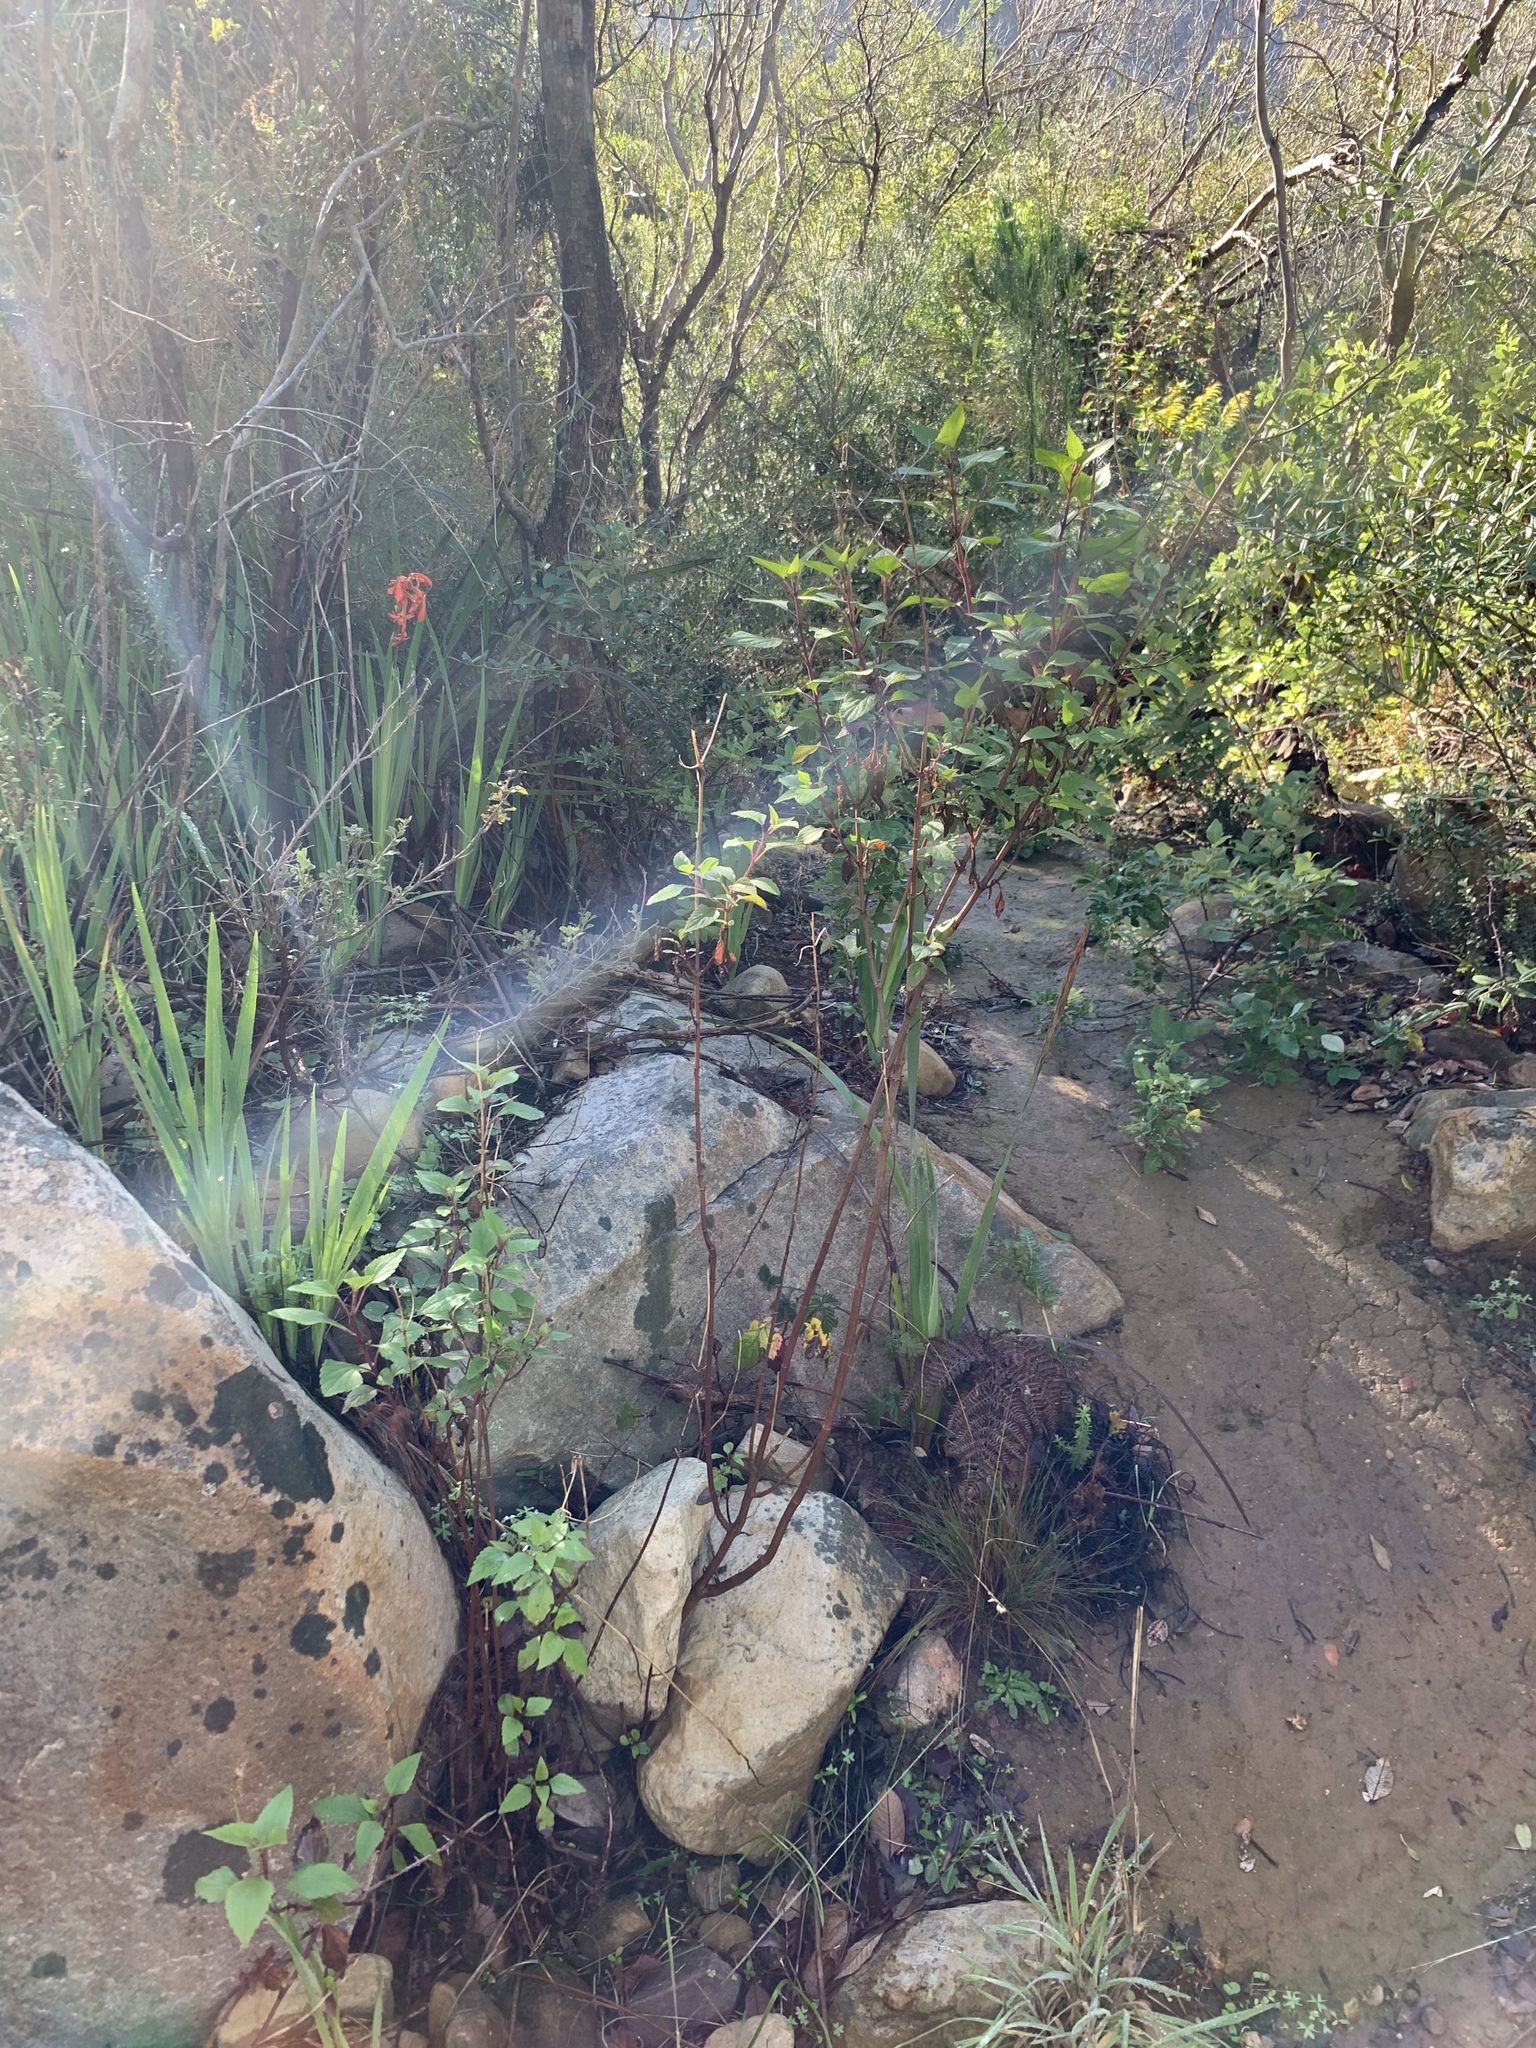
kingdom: Plantae
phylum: Tracheophyta
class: Magnoliopsida
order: Asterales
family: Asteraceae
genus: Ageratina
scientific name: Ageratina adenophora
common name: Sticky snakeroot
